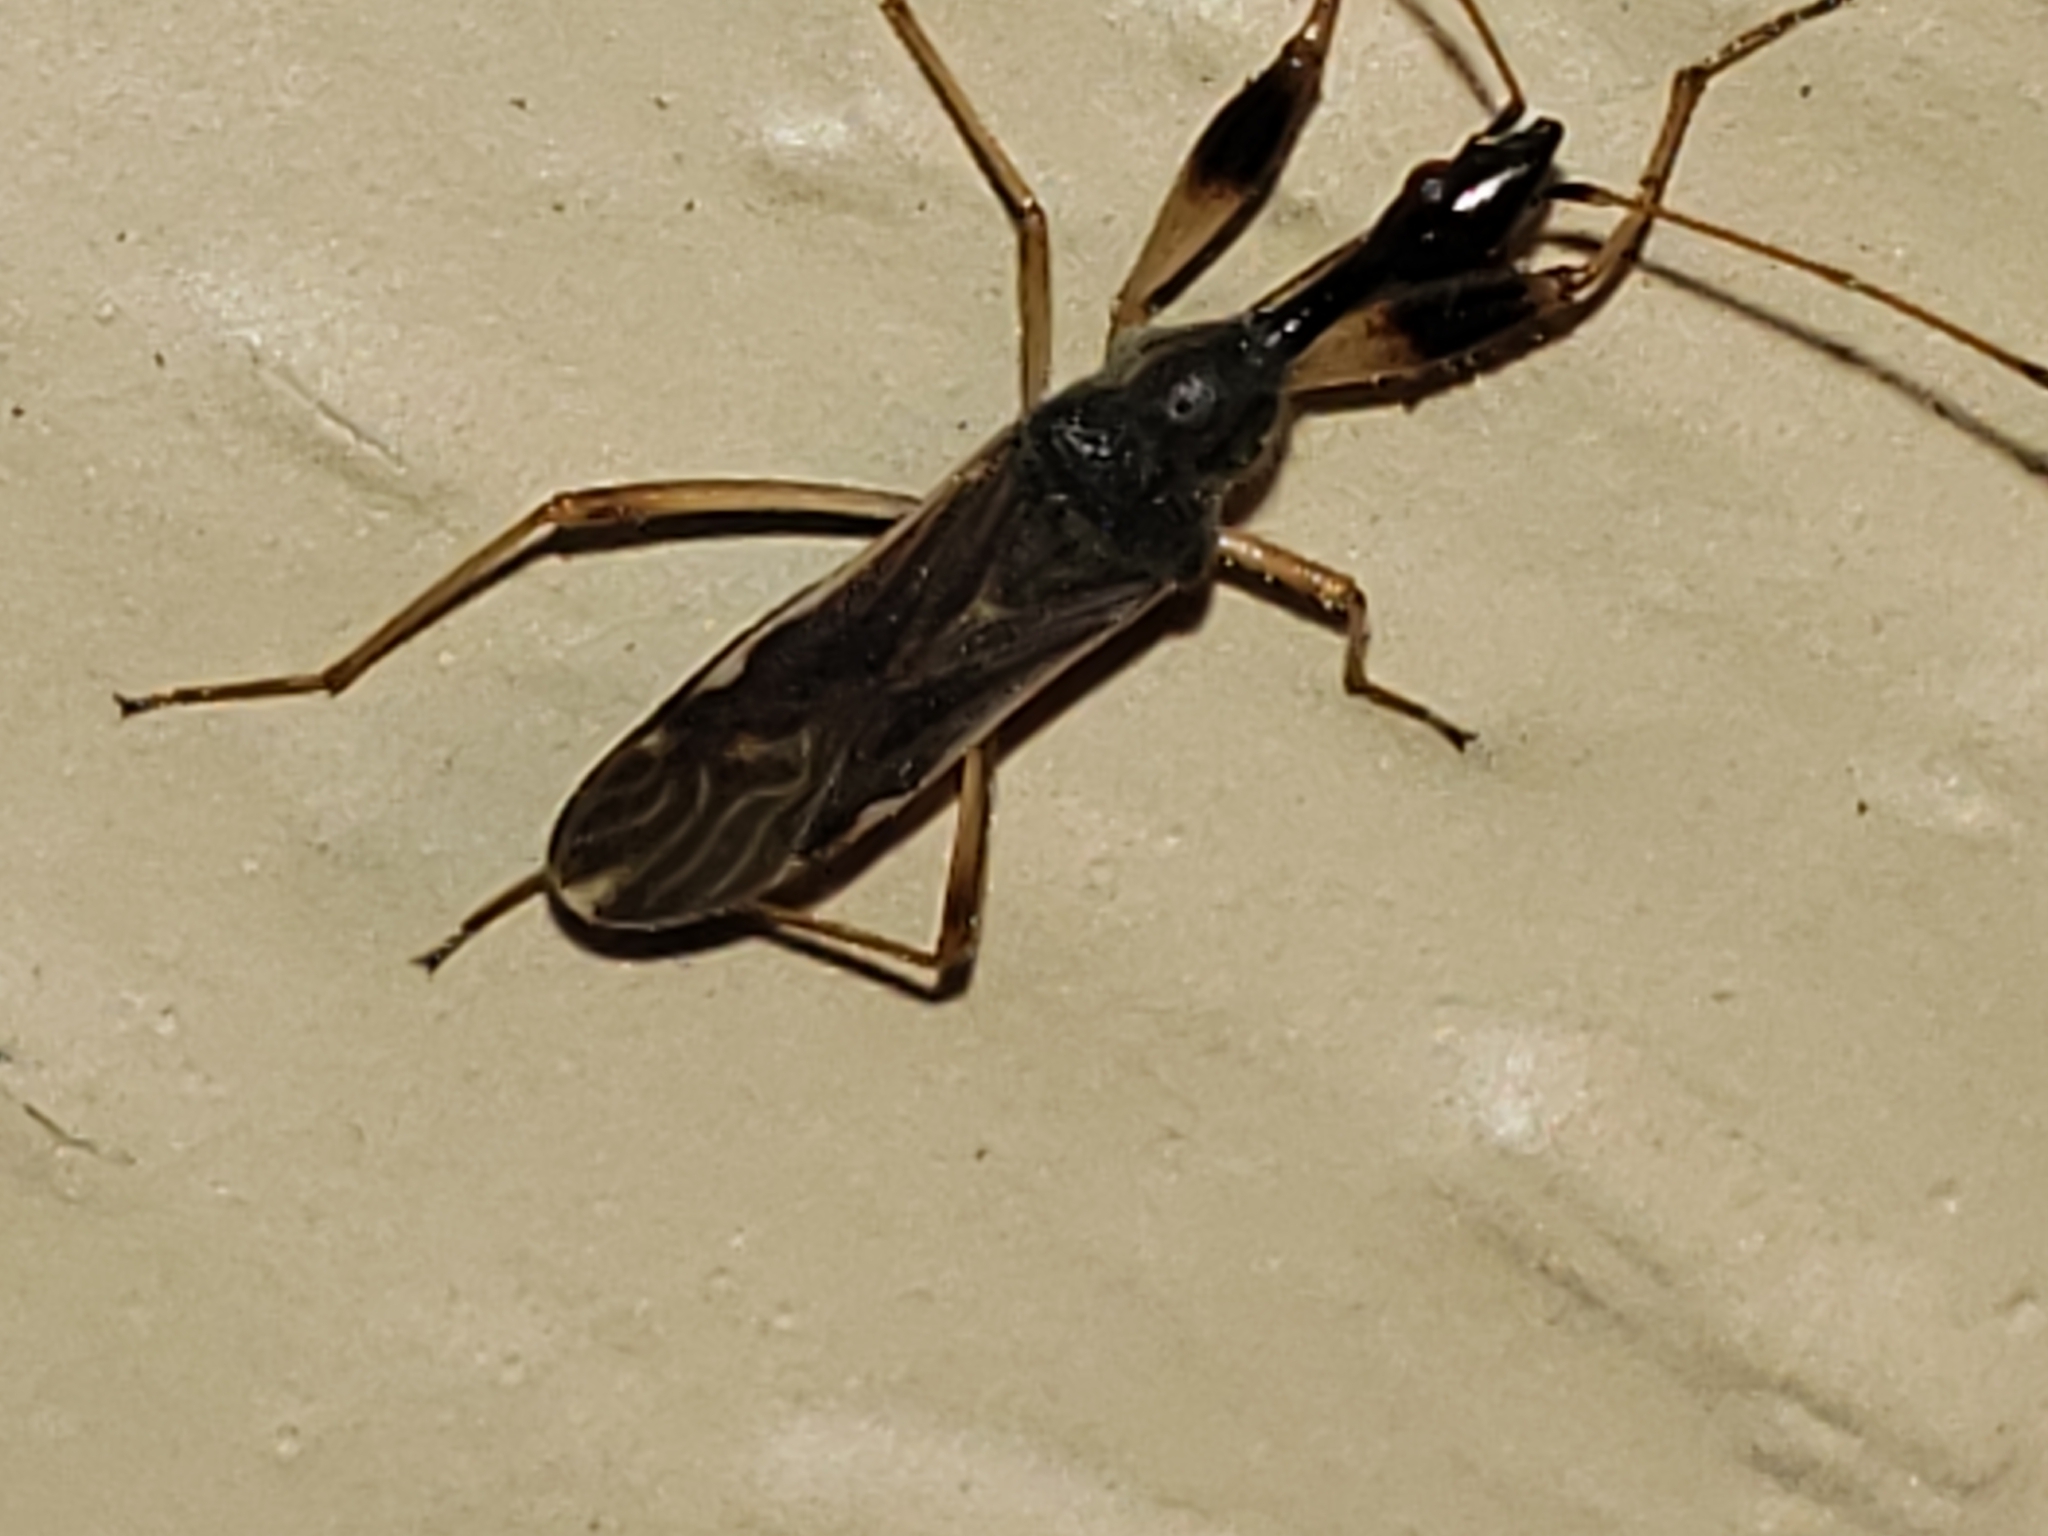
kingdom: Animalia
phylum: Arthropoda
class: Insecta
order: Hemiptera
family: Rhyparochromidae
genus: Myodocha
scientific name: Myodocha serripes
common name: Long-necked seed bug
